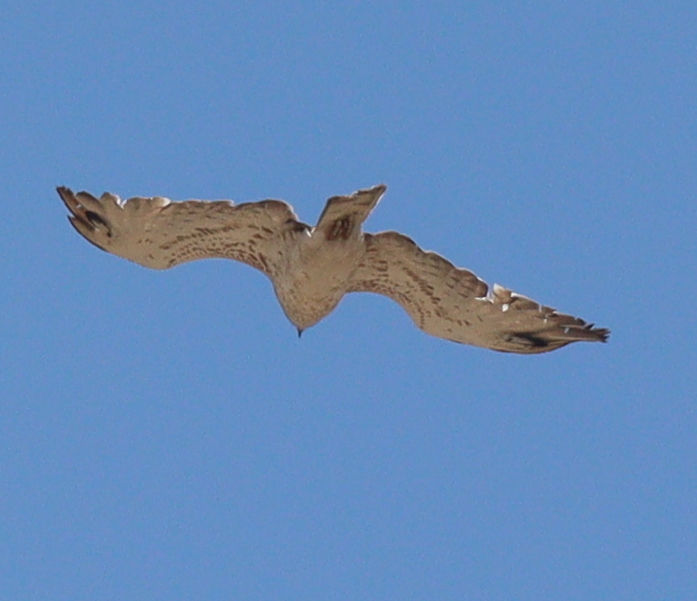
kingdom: Animalia
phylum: Chordata
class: Aves
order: Accipitriformes
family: Accipitridae
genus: Circaetus
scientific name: Circaetus gallicus
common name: Short-toed snake eagle
